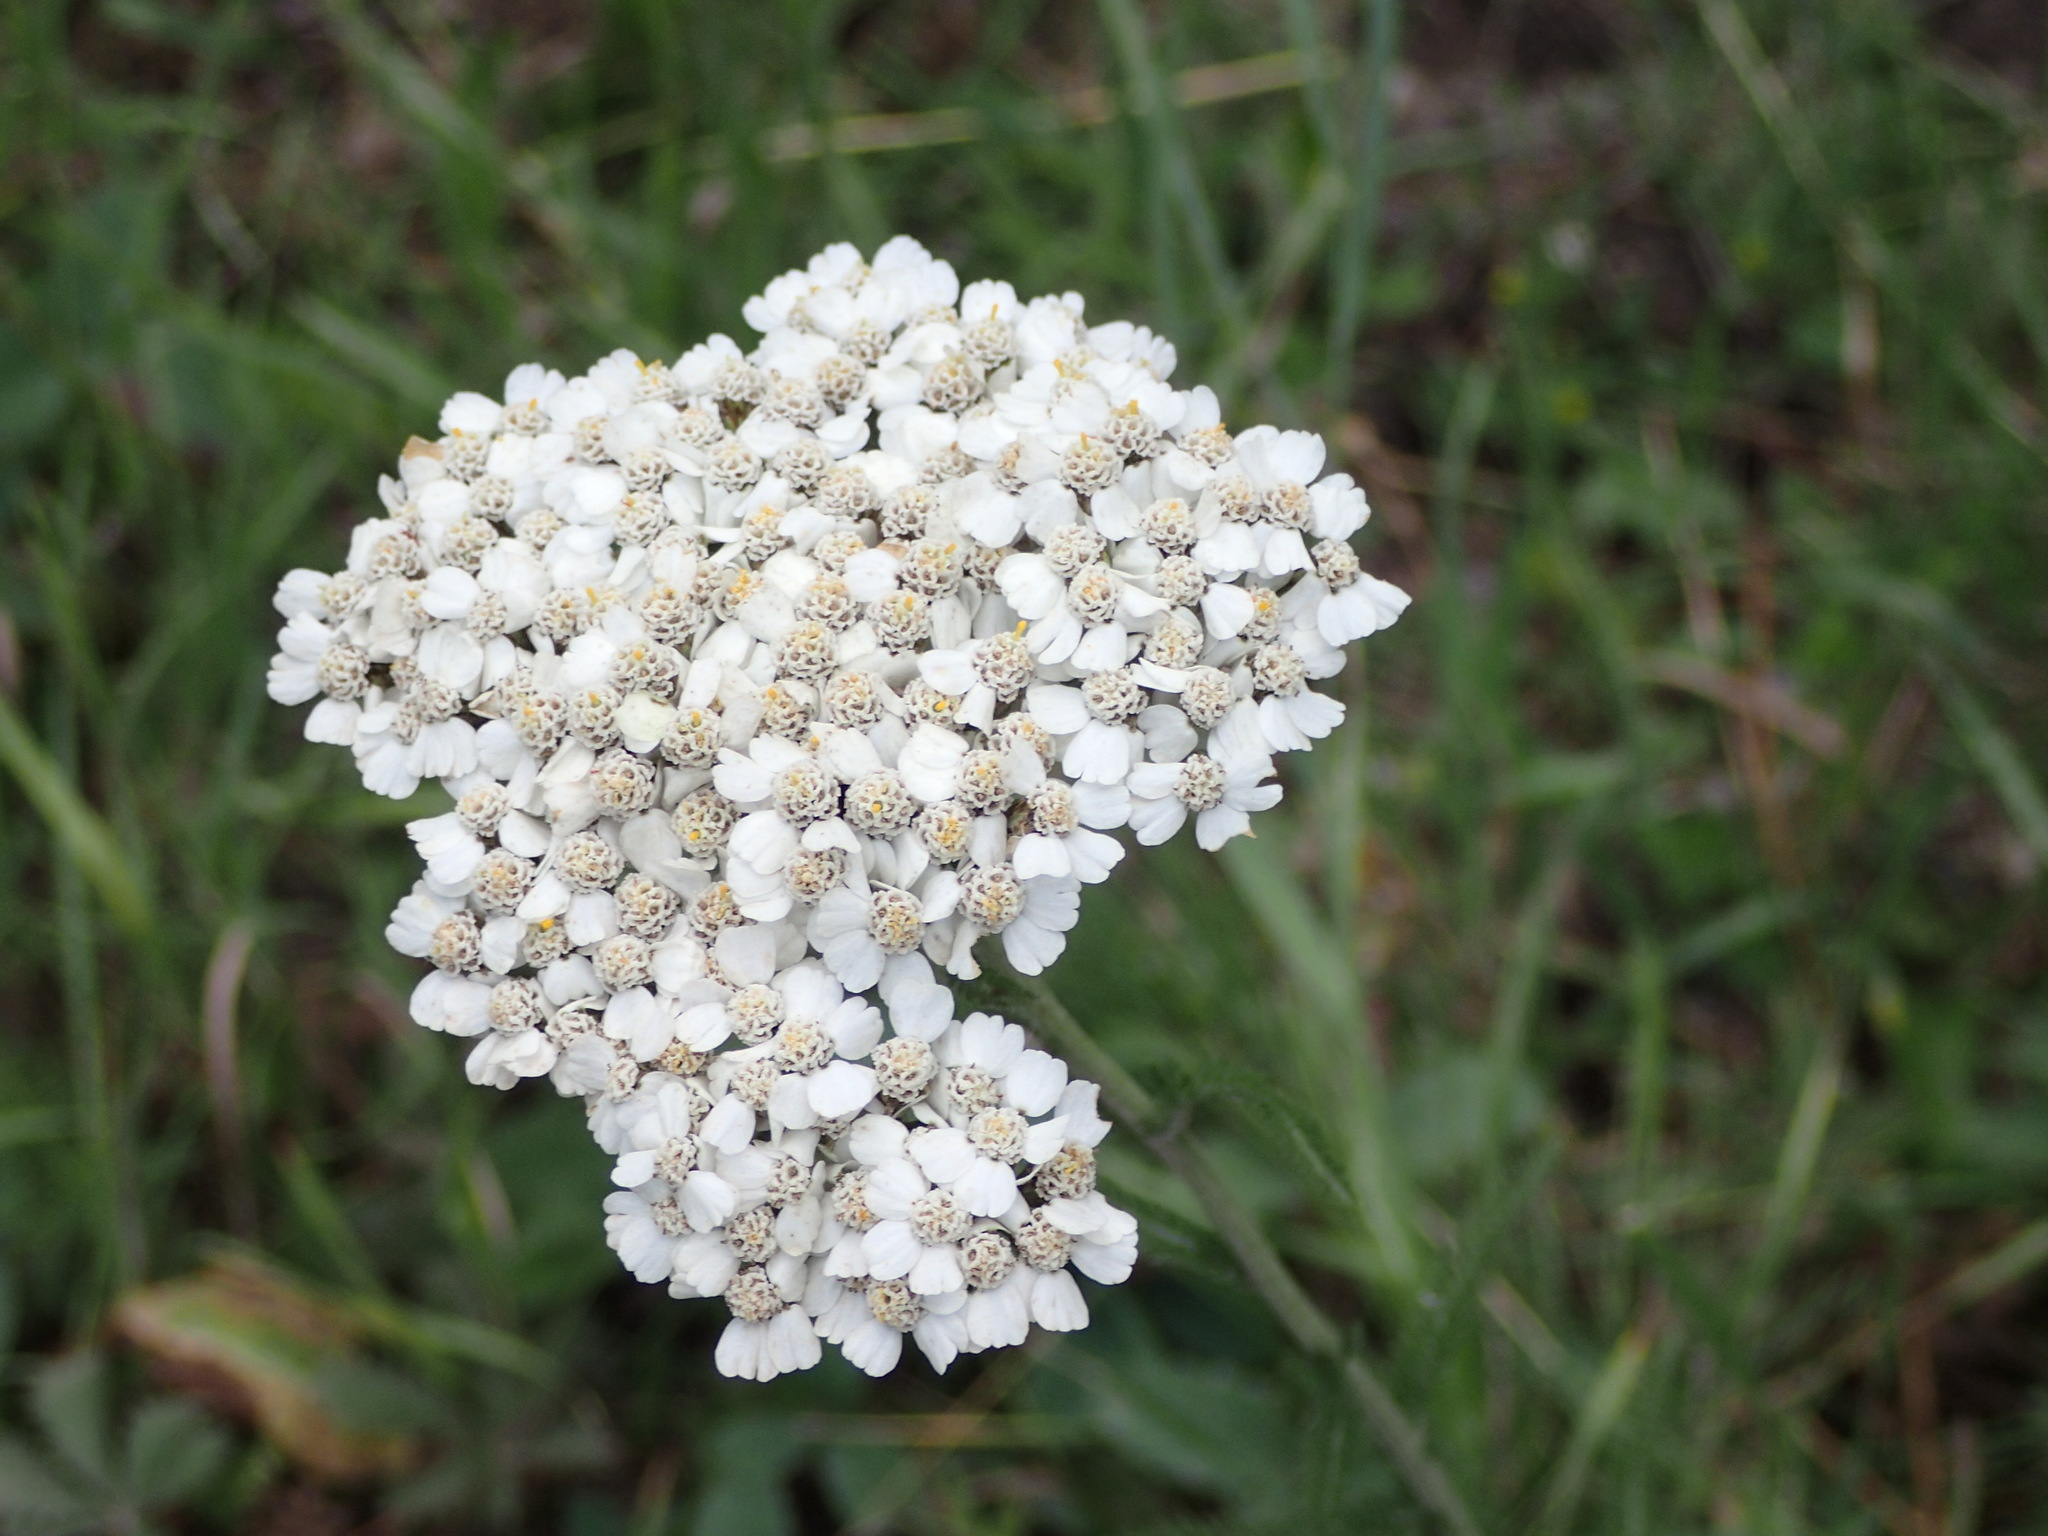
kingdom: Plantae
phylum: Tracheophyta
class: Magnoliopsida
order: Asterales
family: Asteraceae
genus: Achillea
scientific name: Achillea millefolium
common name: Yarrow
